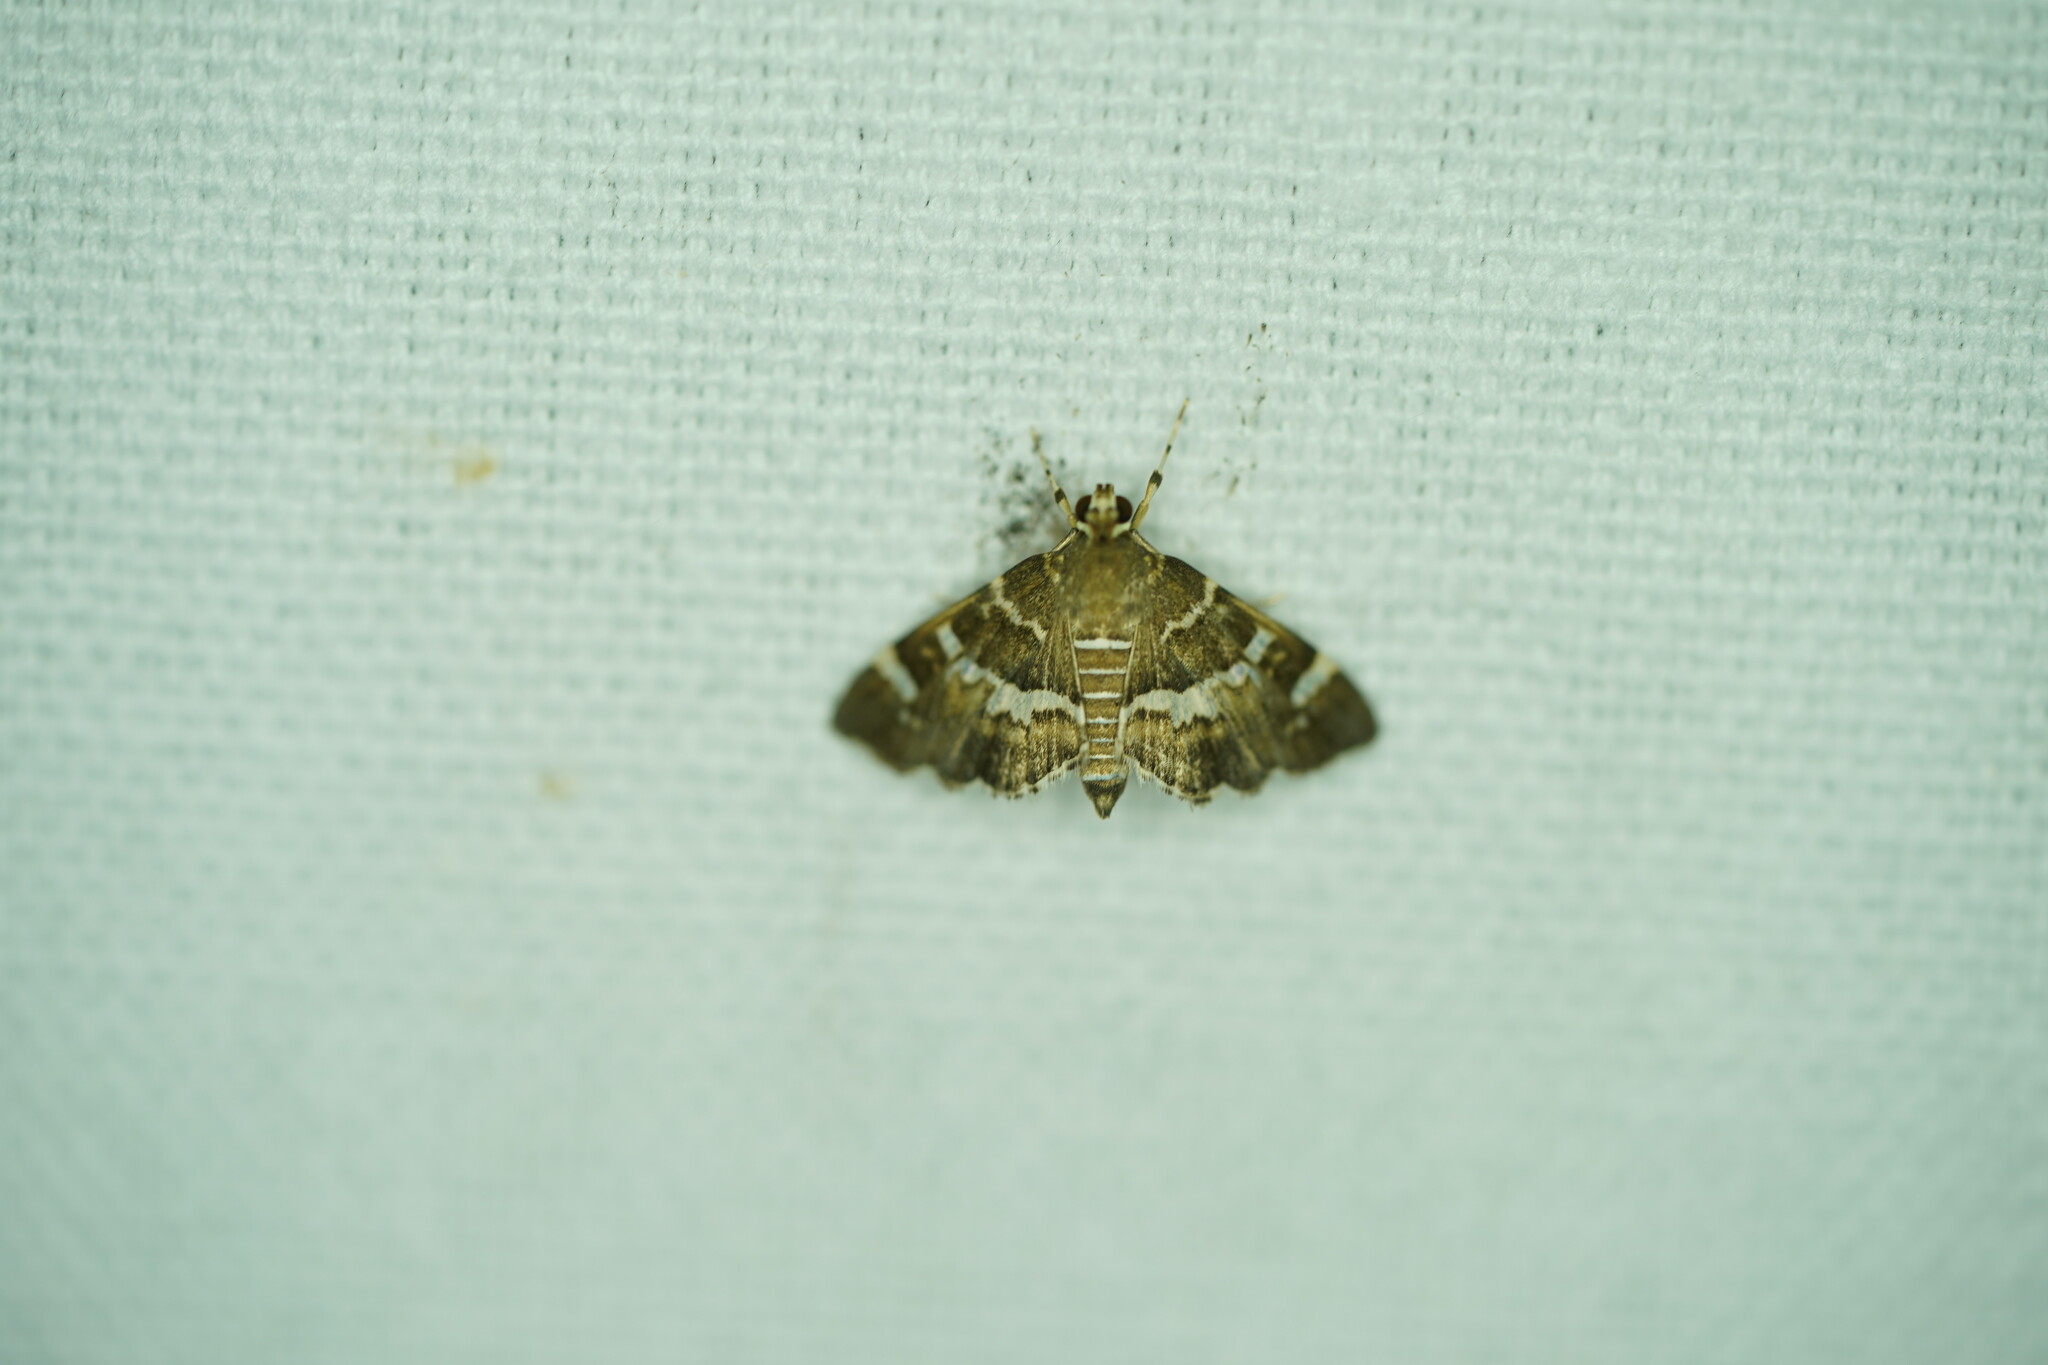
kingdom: Animalia
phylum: Arthropoda
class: Insecta
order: Lepidoptera
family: Crambidae
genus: Hymenia
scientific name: Hymenia perspectalis
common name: Spotted beet webworm
